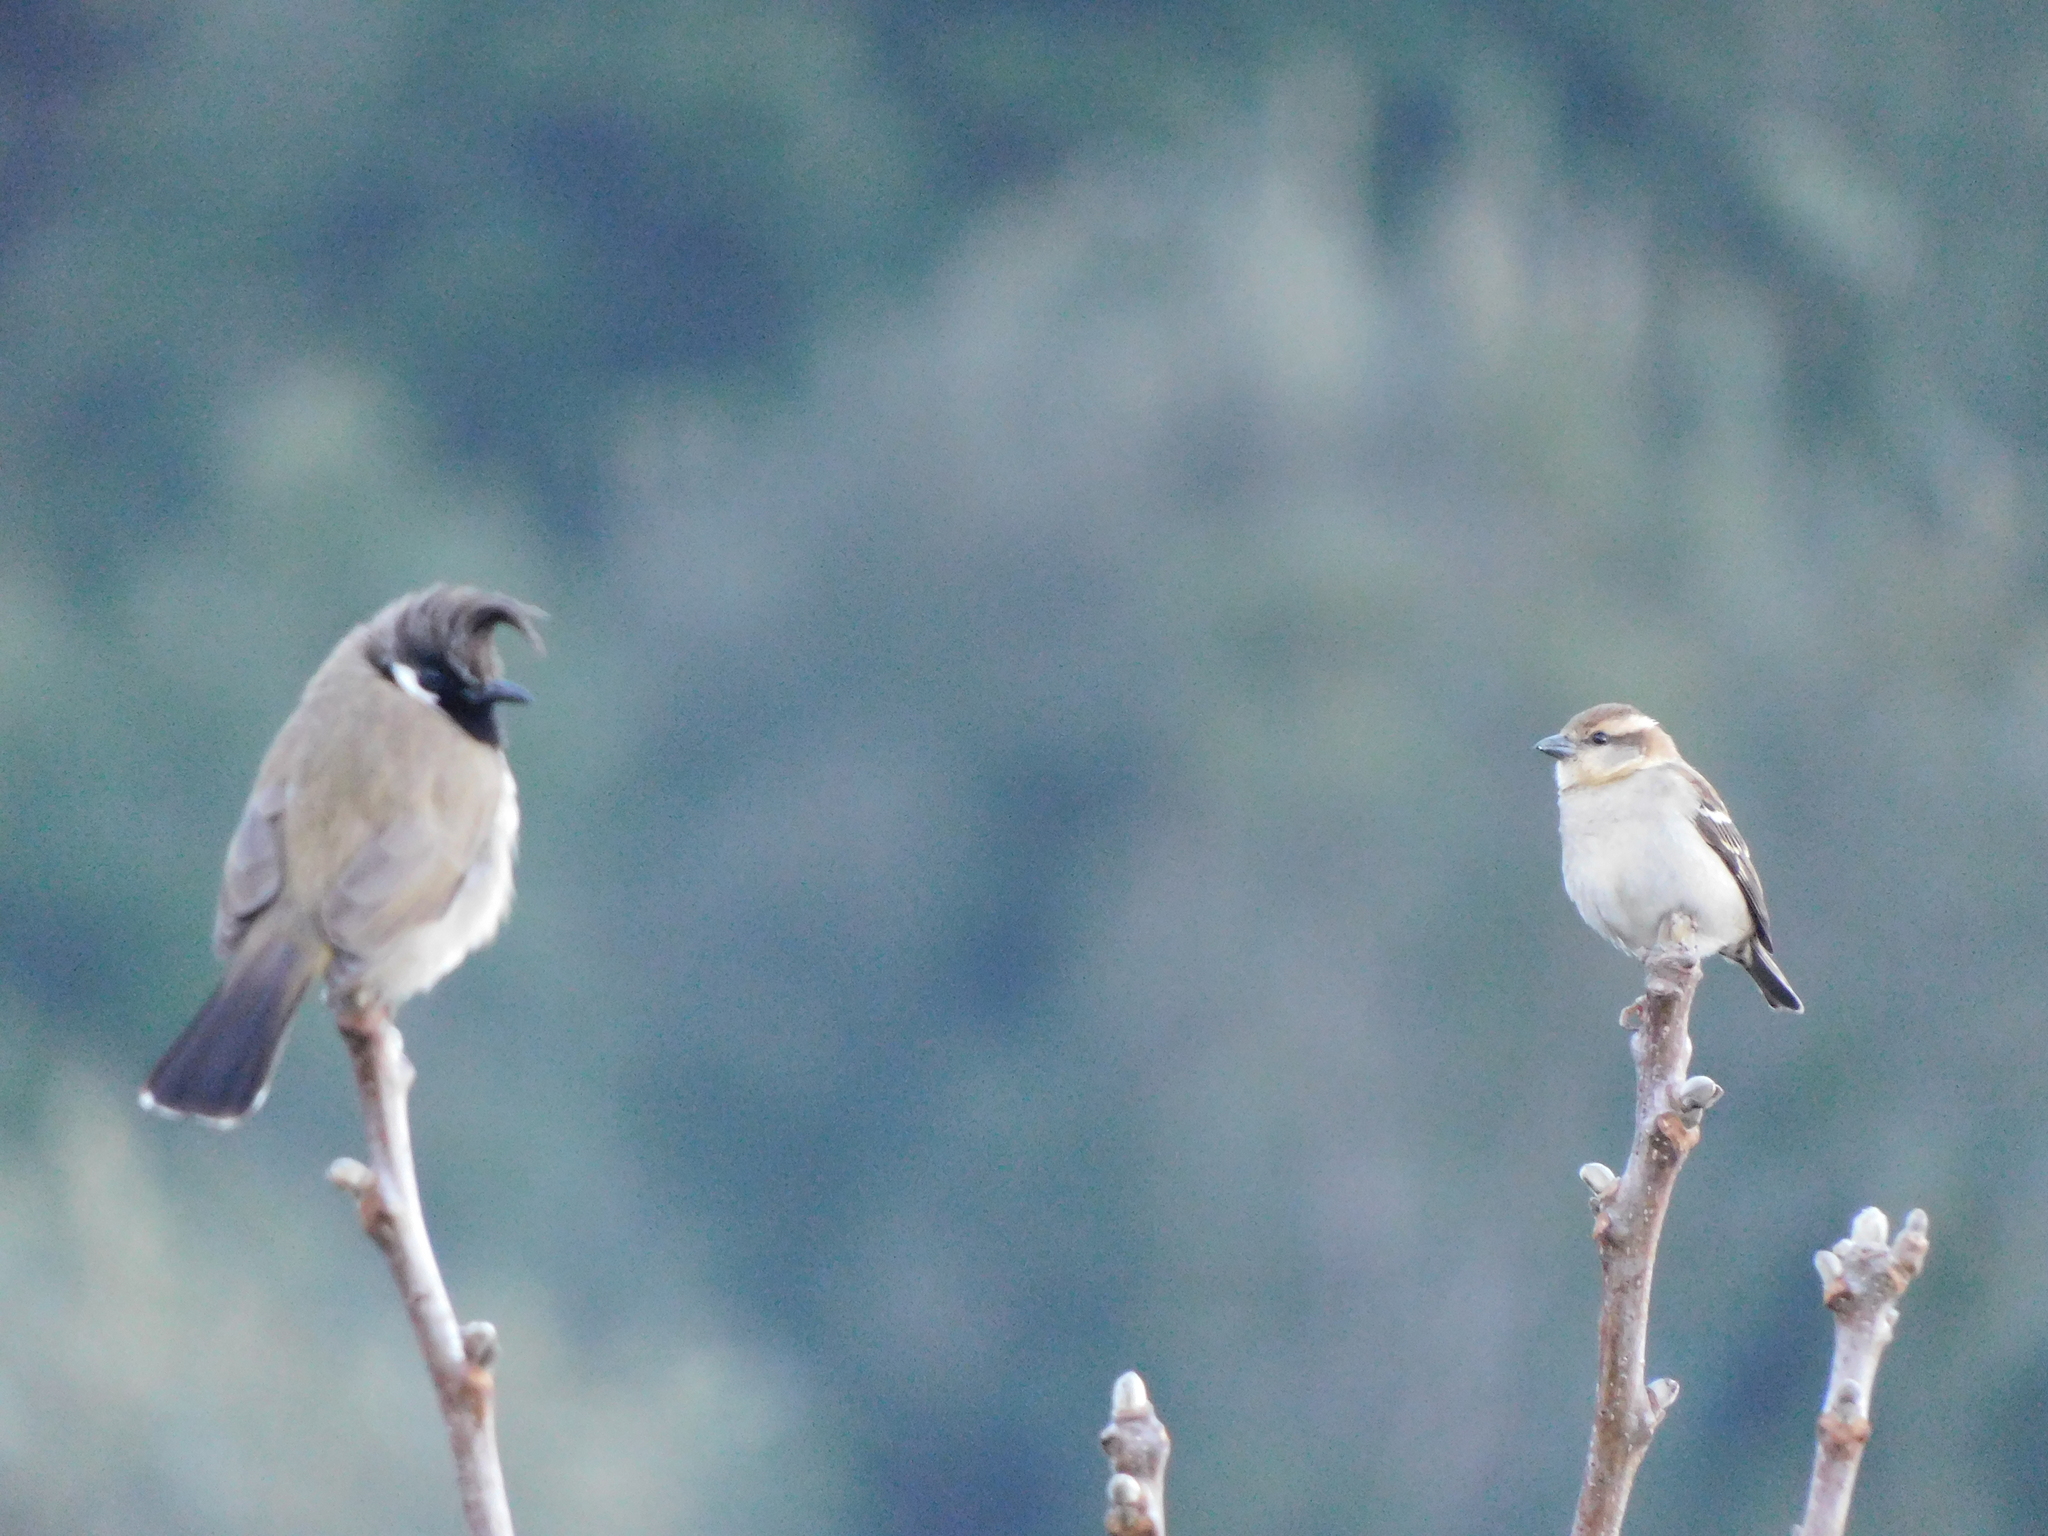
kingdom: Animalia
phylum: Chordata
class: Aves
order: Passeriformes
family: Pycnonotidae
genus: Pycnonotus
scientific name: Pycnonotus leucogenys
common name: Himalayan bulbul
